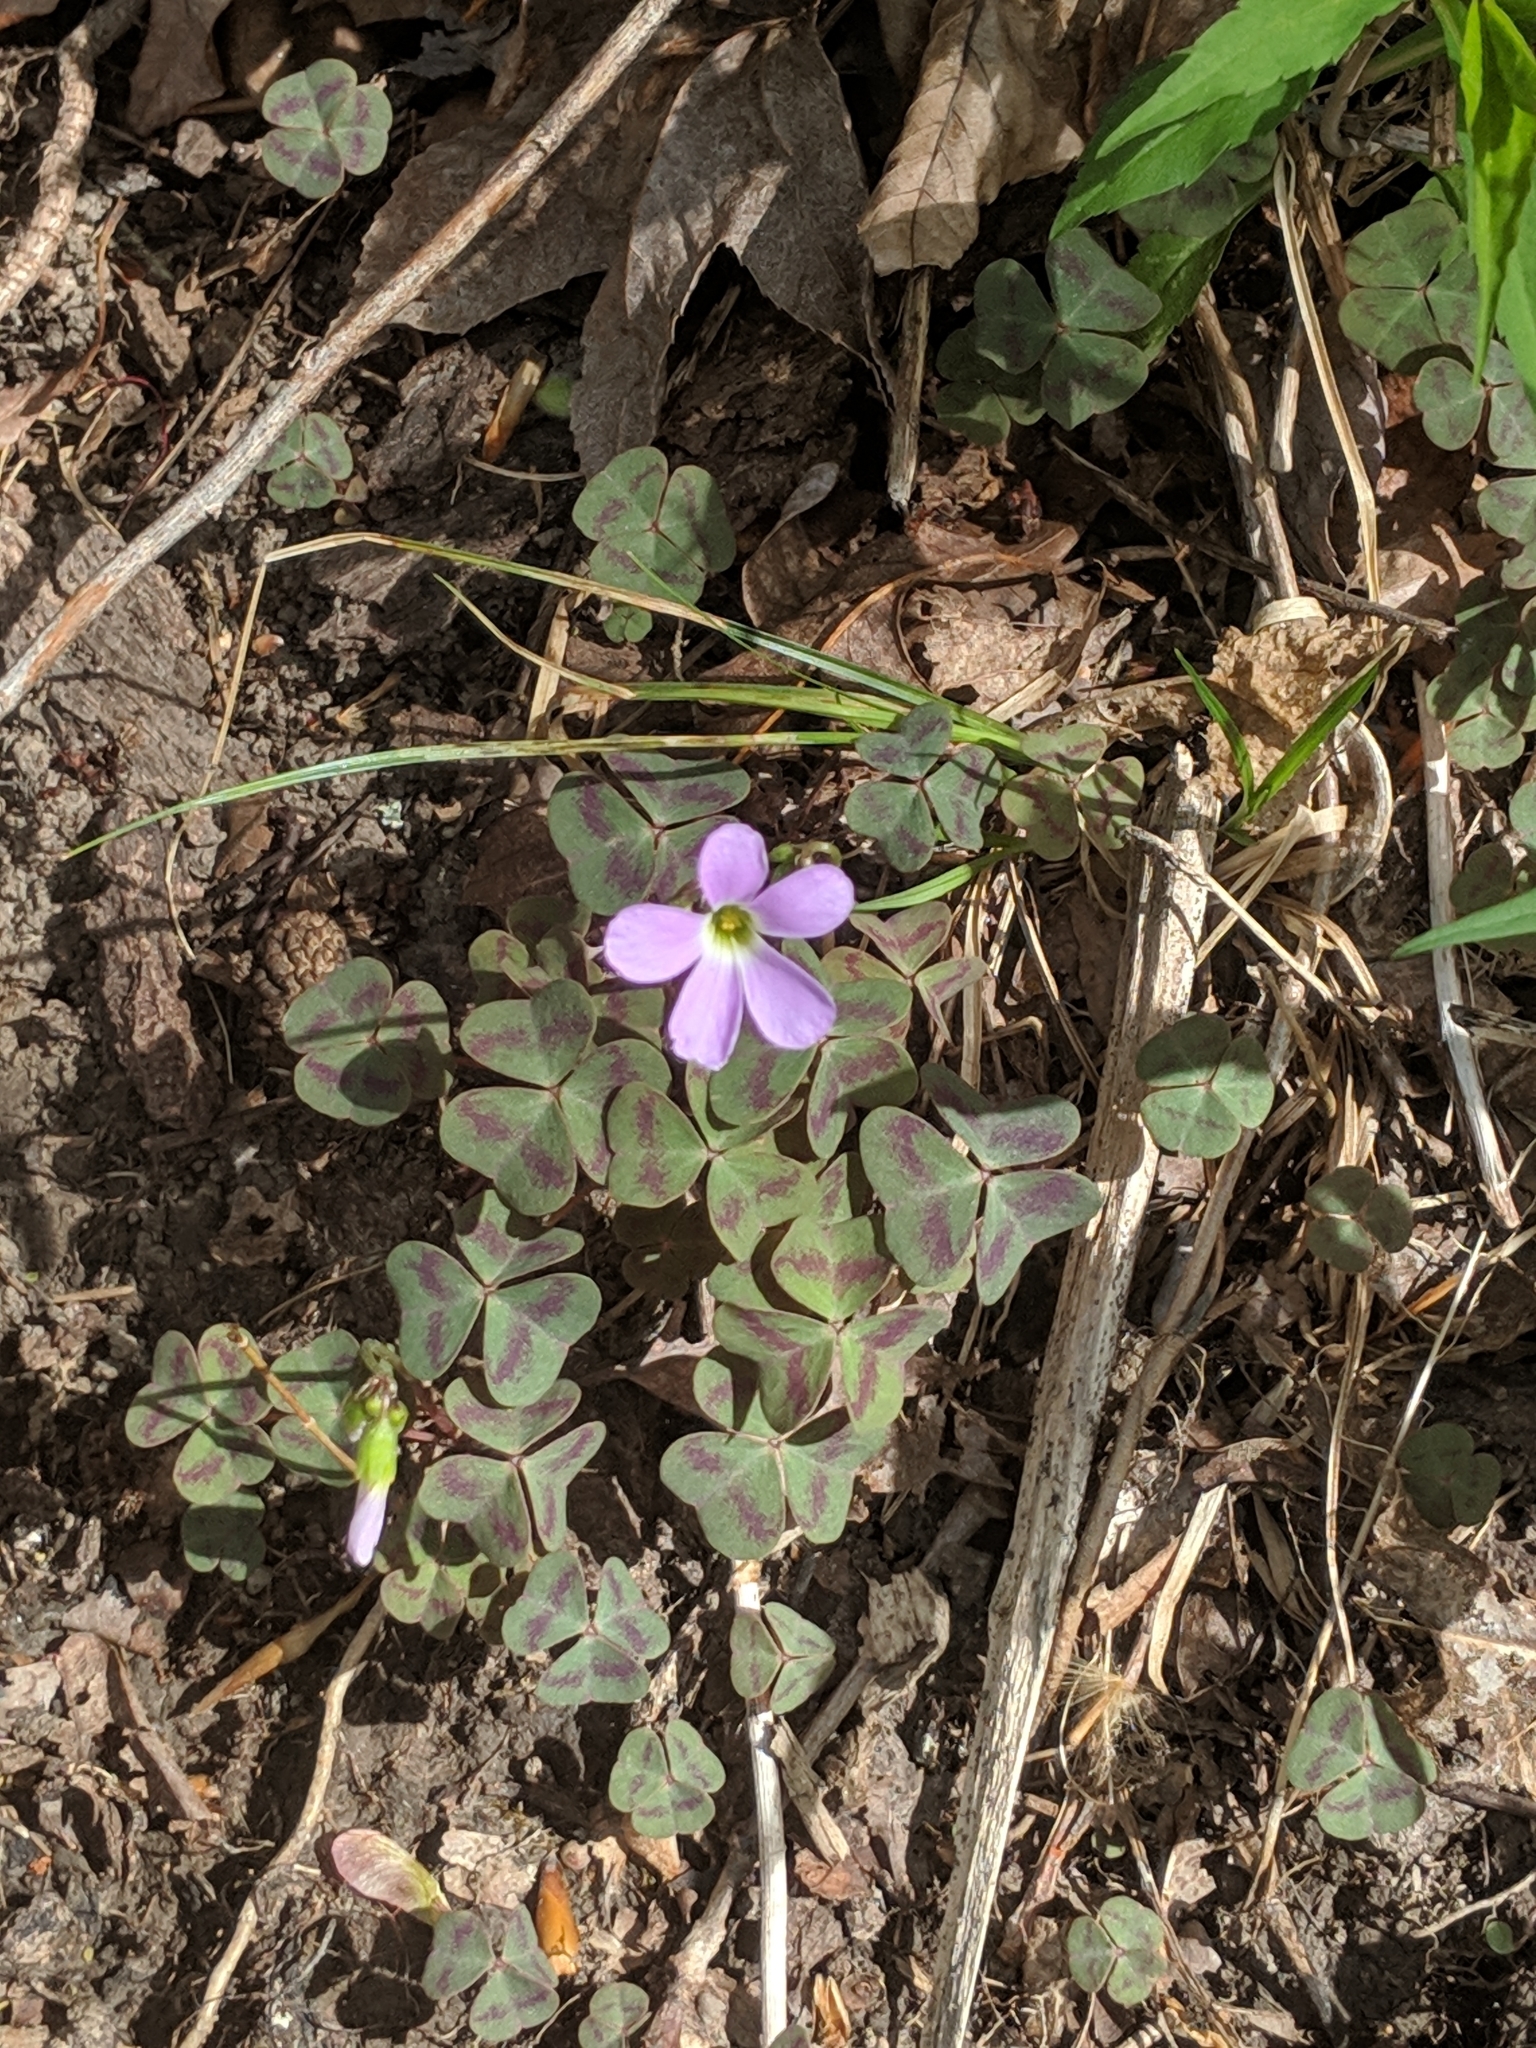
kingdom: Plantae
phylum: Tracheophyta
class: Magnoliopsida
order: Oxalidales
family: Oxalidaceae
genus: Oxalis
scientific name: Oxalis violacea
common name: Violet wood-sorrel
